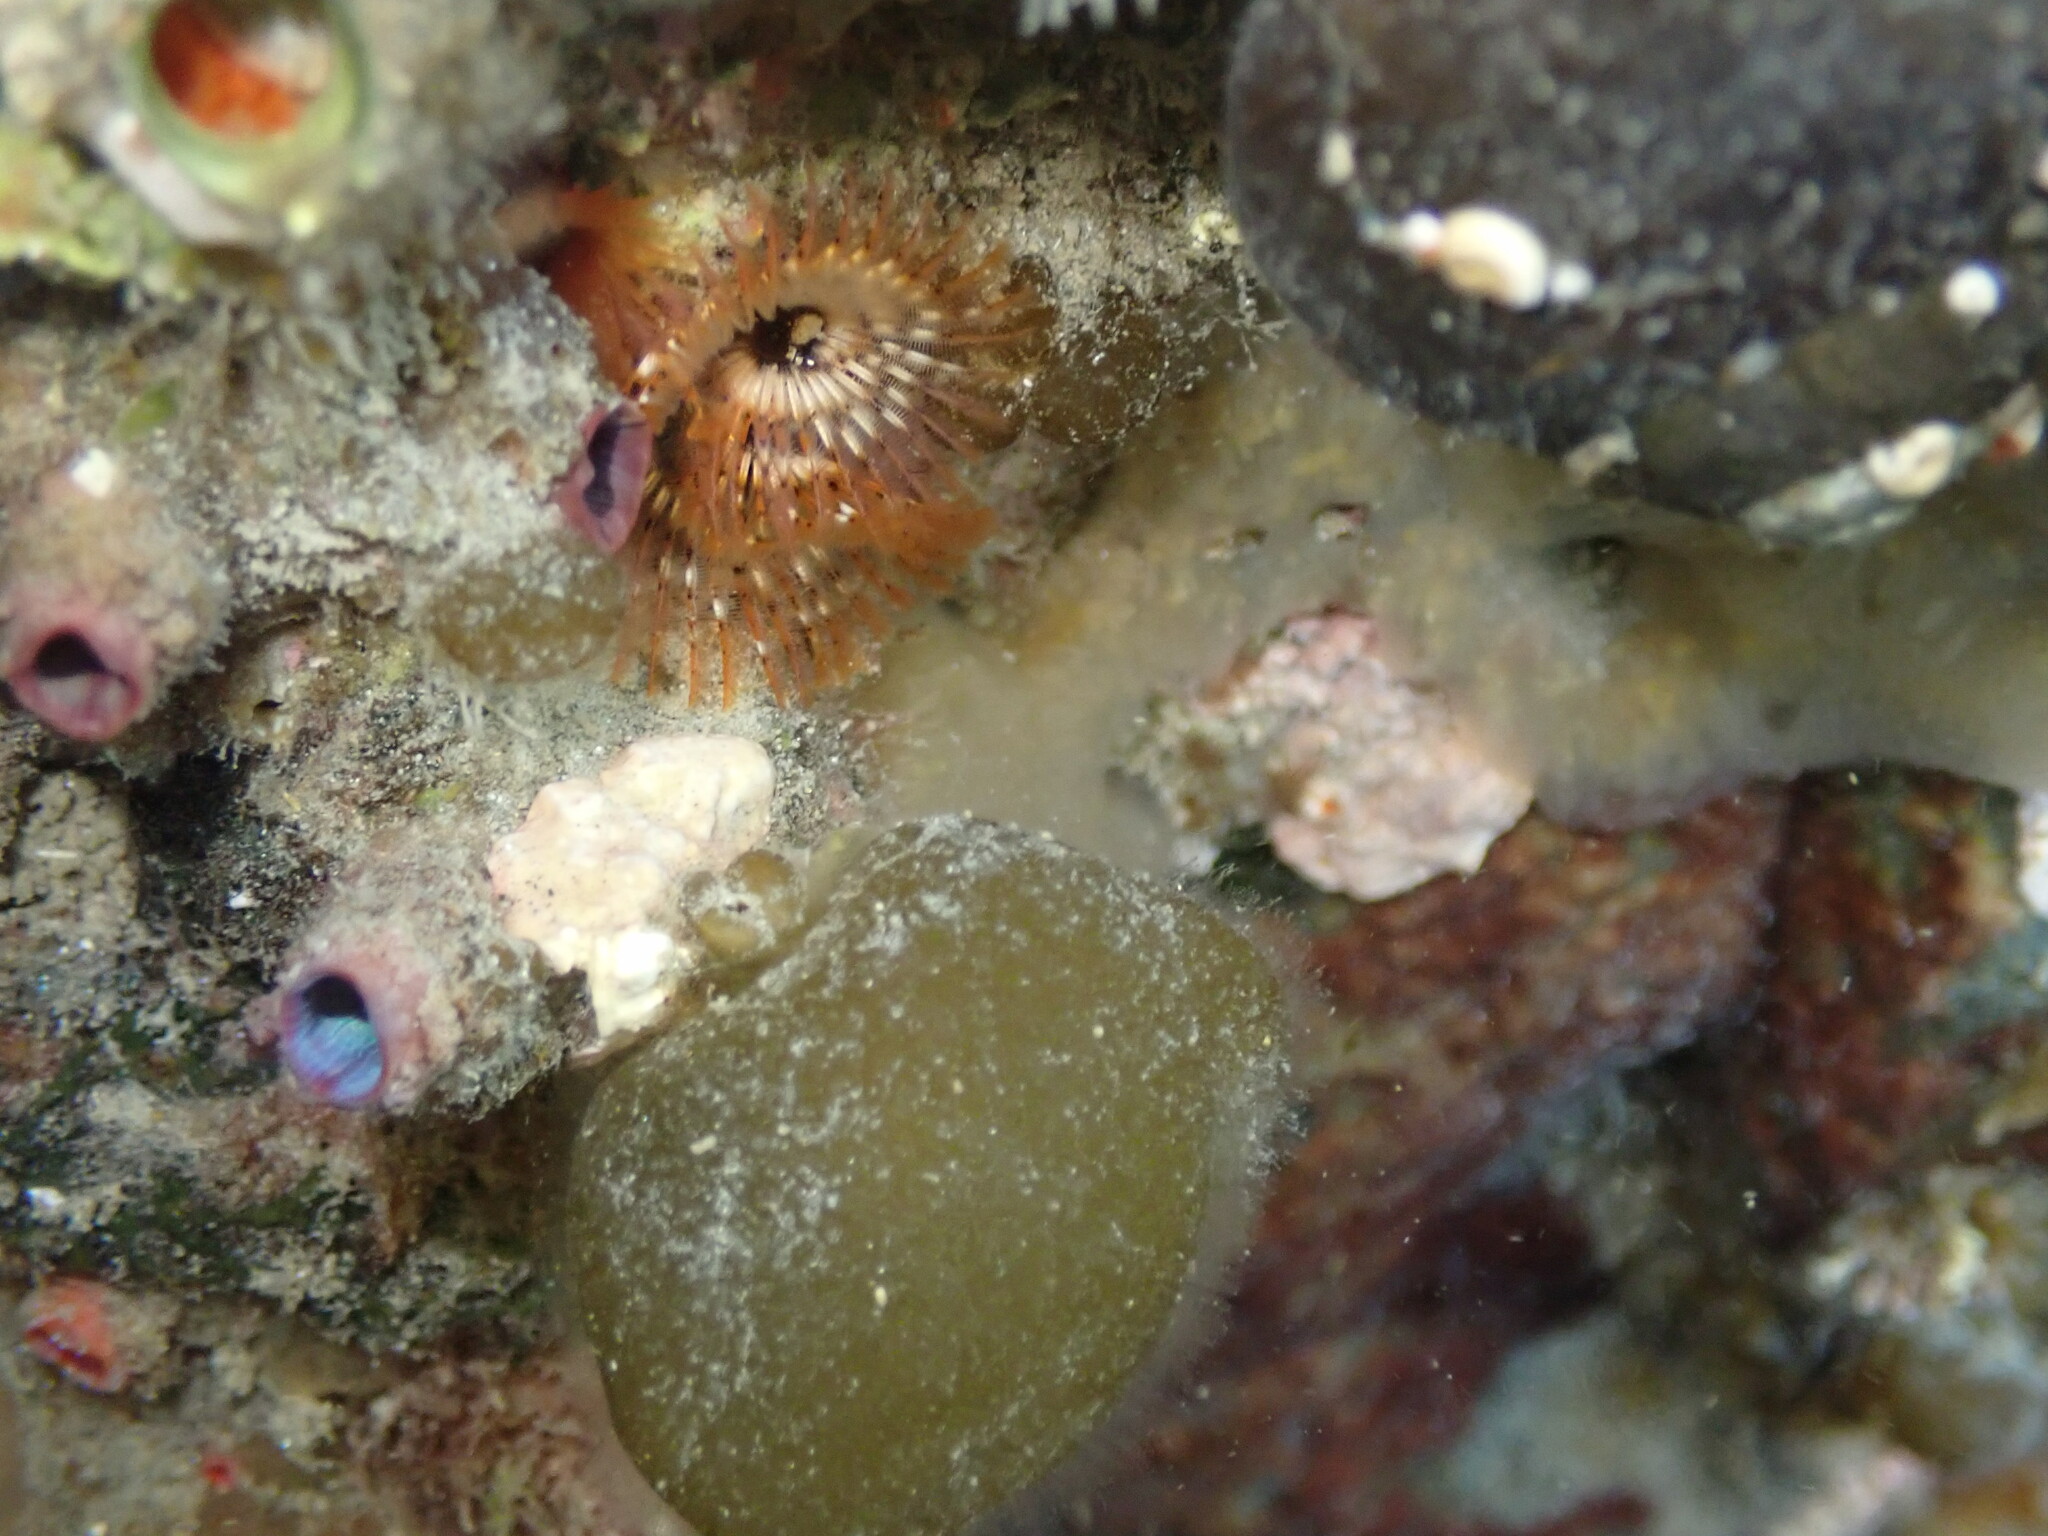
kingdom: Animalia
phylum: Chordata
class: Ascidiacea
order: Stolidobranchia
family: Styelidae
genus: Cnemidocarpa
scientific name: Cnemidocarpa nisiotis
